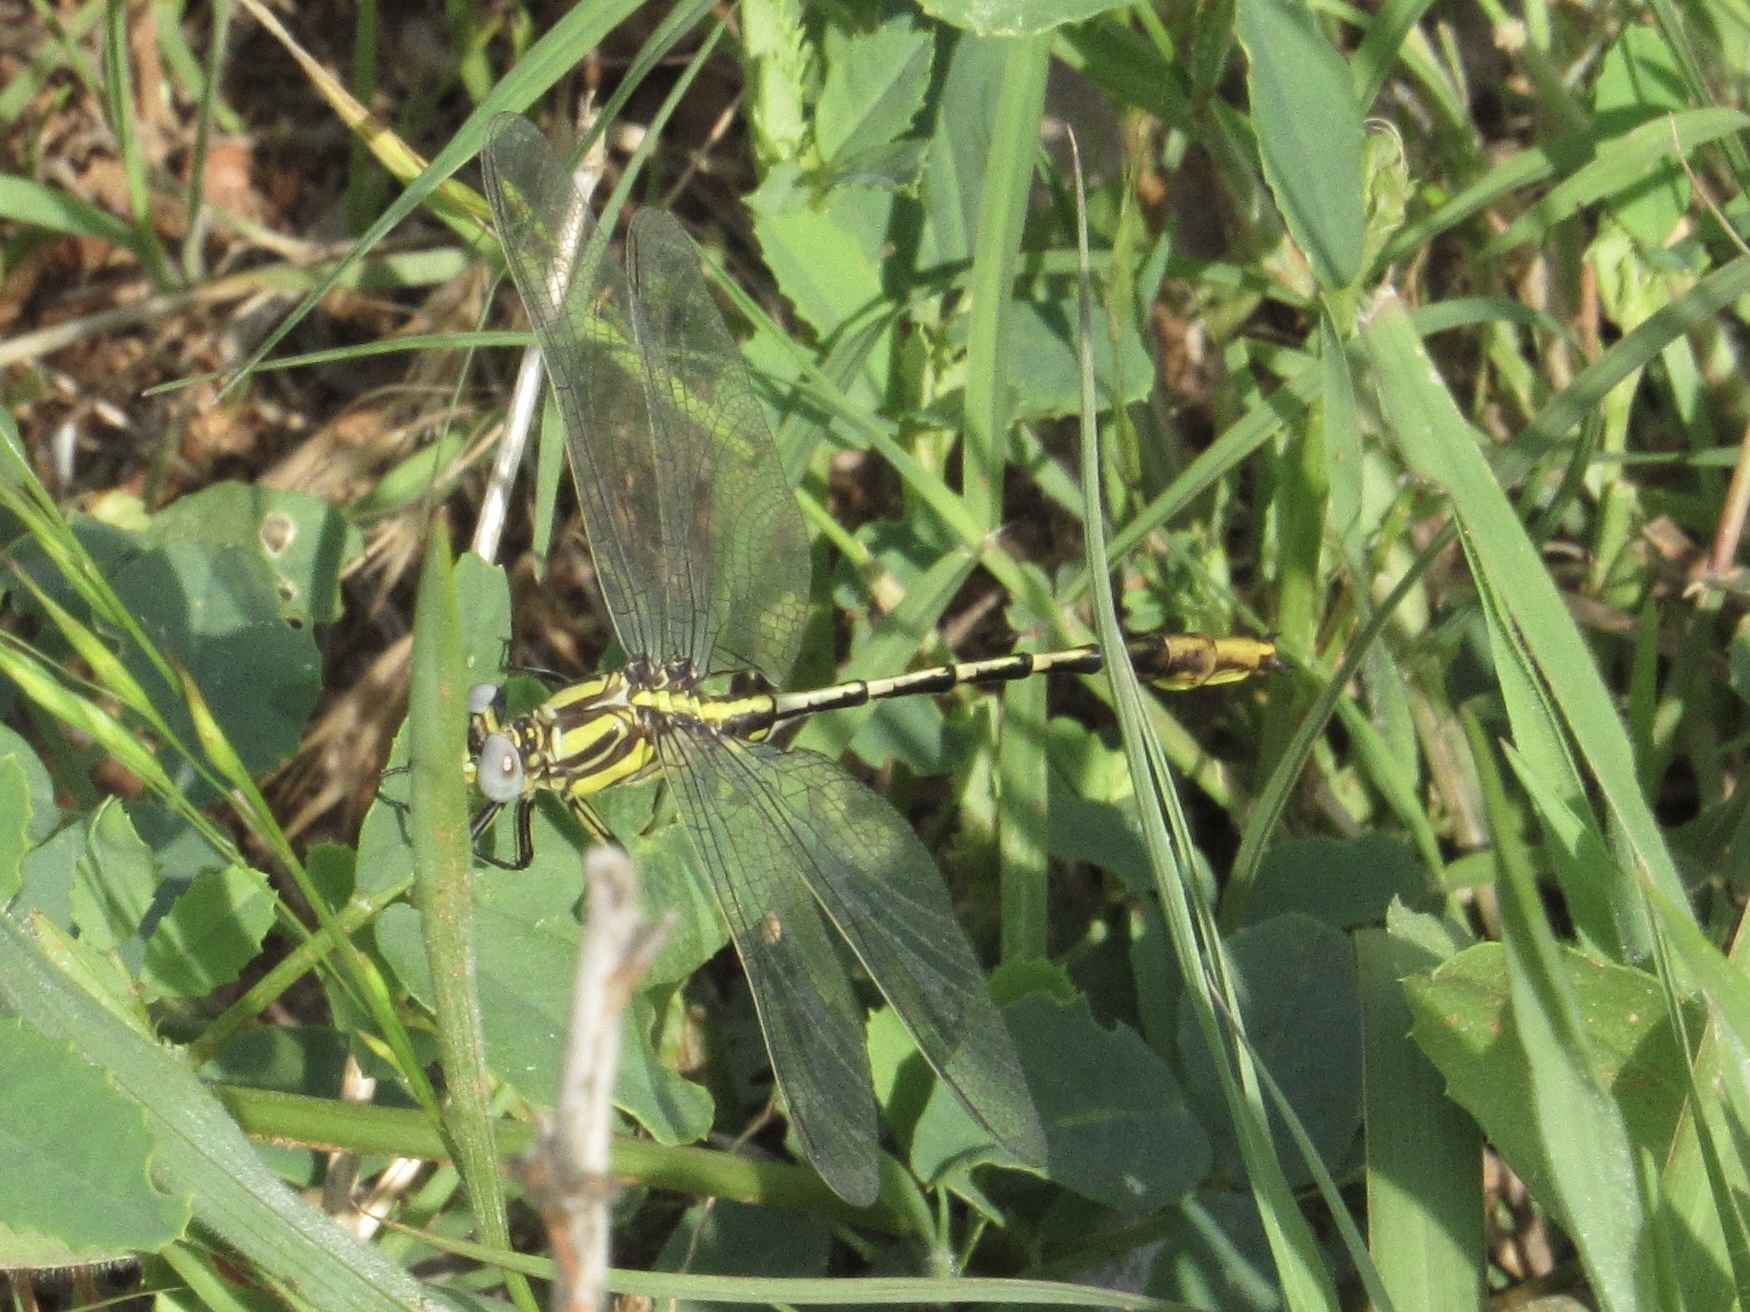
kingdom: Animalia
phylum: Arthropoda
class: Insecta
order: Odonata
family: Gomphidae
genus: Phanogomphus
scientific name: Phanogomphus militaris
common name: Sulphur-tipped clubtail
